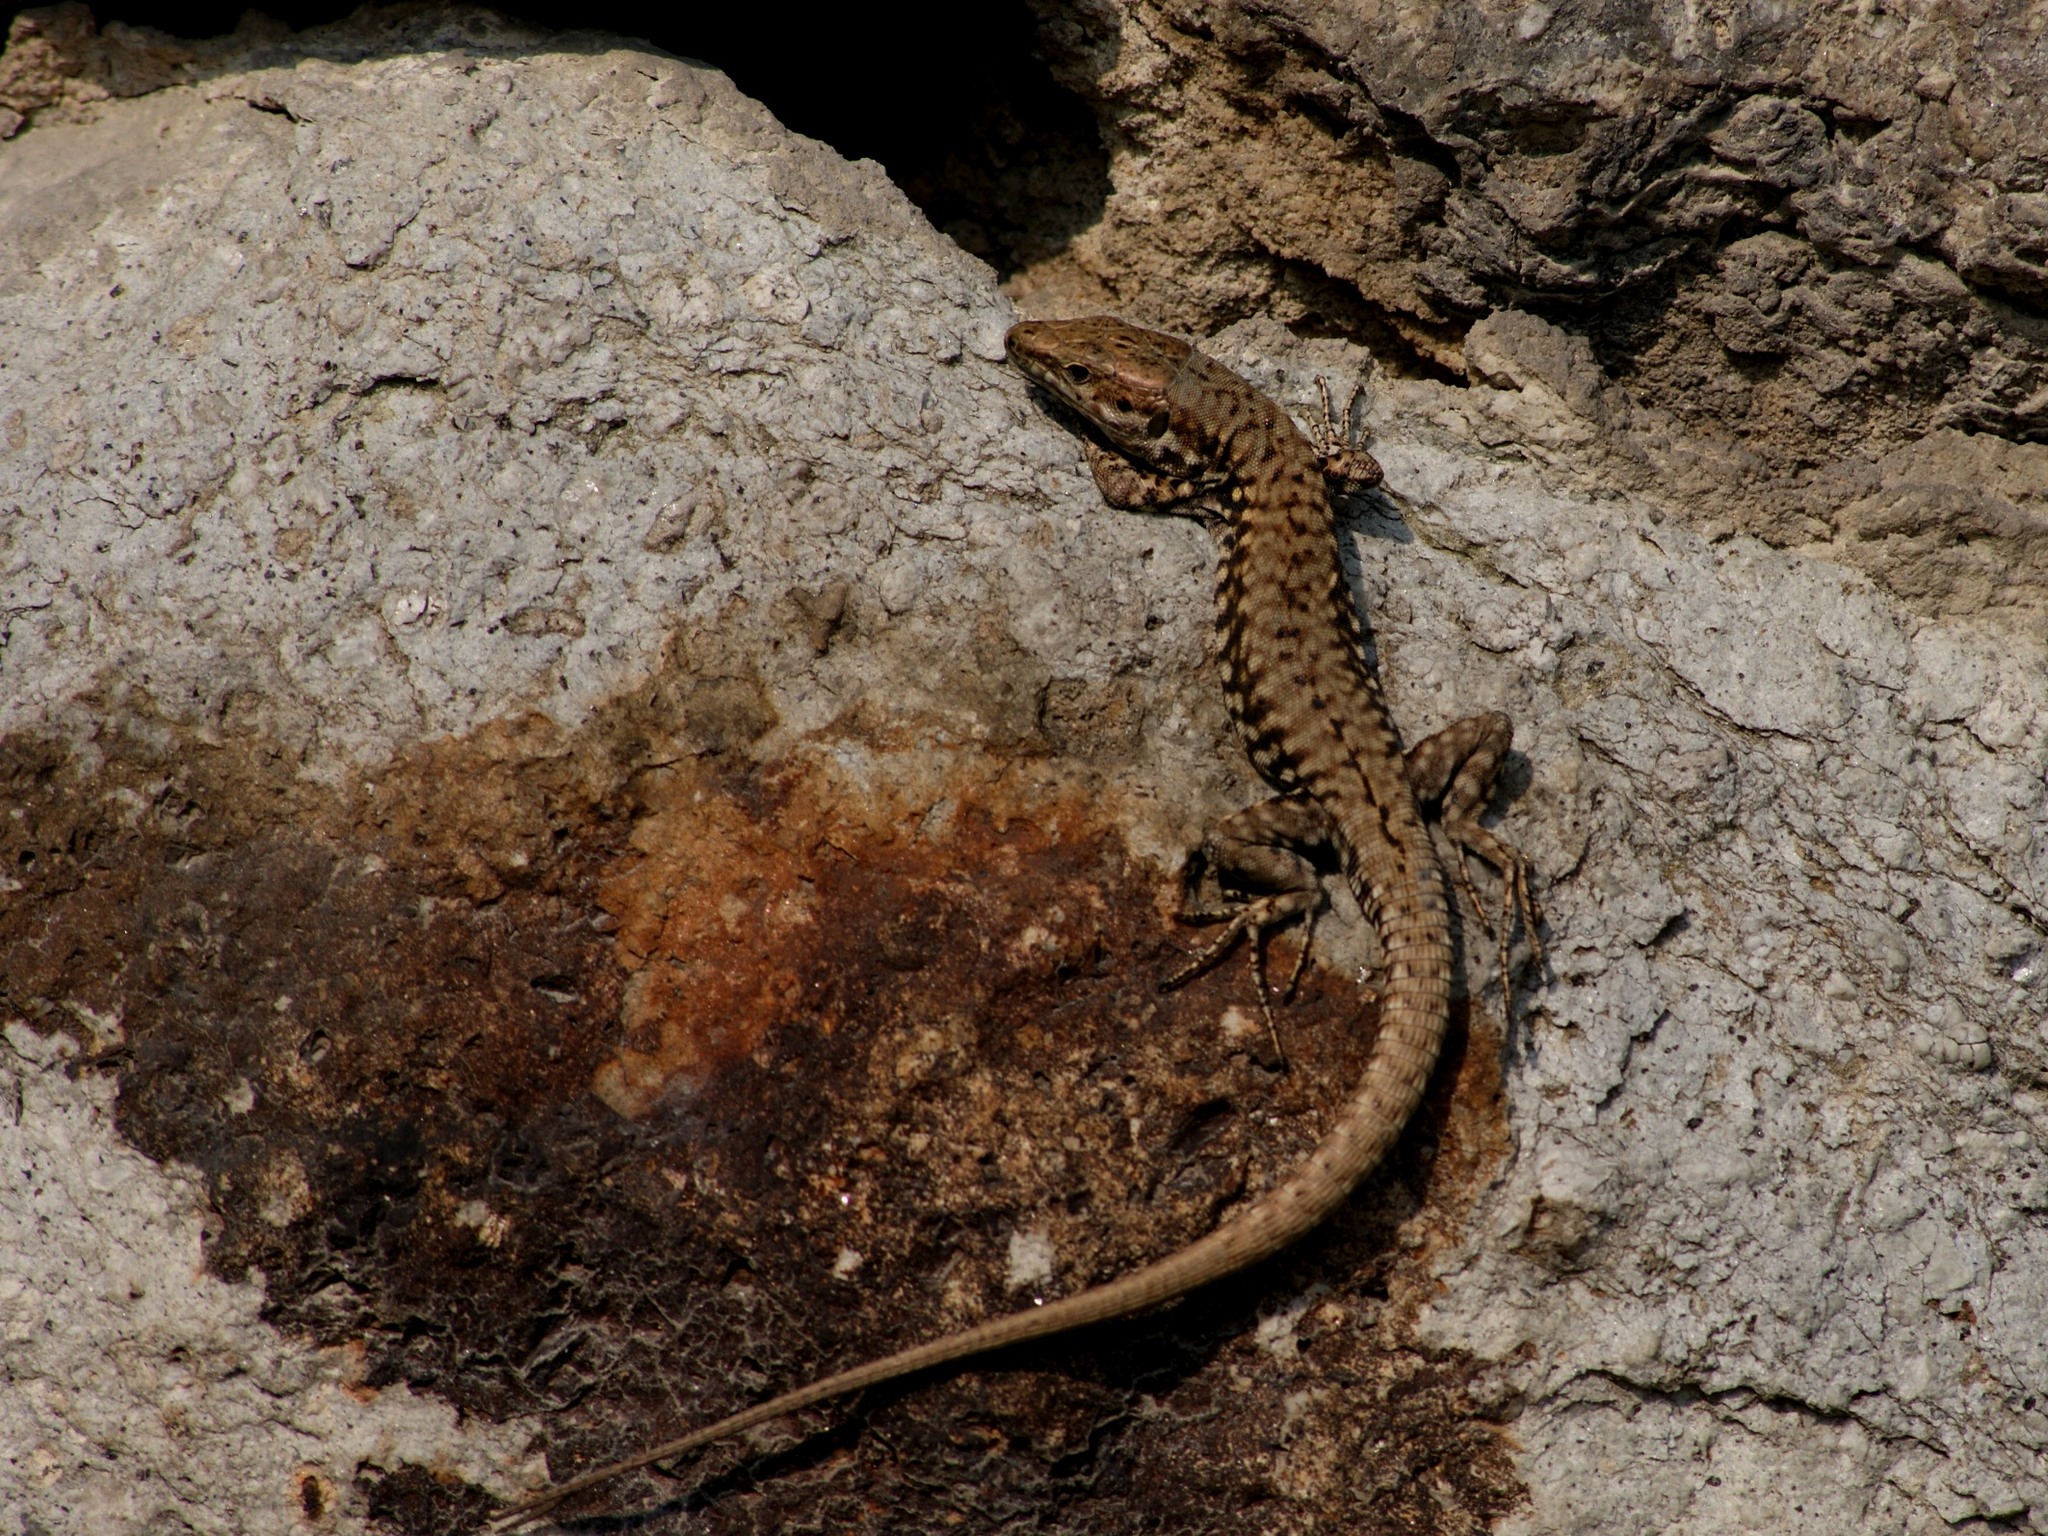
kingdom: Animalia
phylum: Chordata
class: Squamata
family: Lacertidae
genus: Podarcis
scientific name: Podarcis muralis
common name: Common wall lizard
